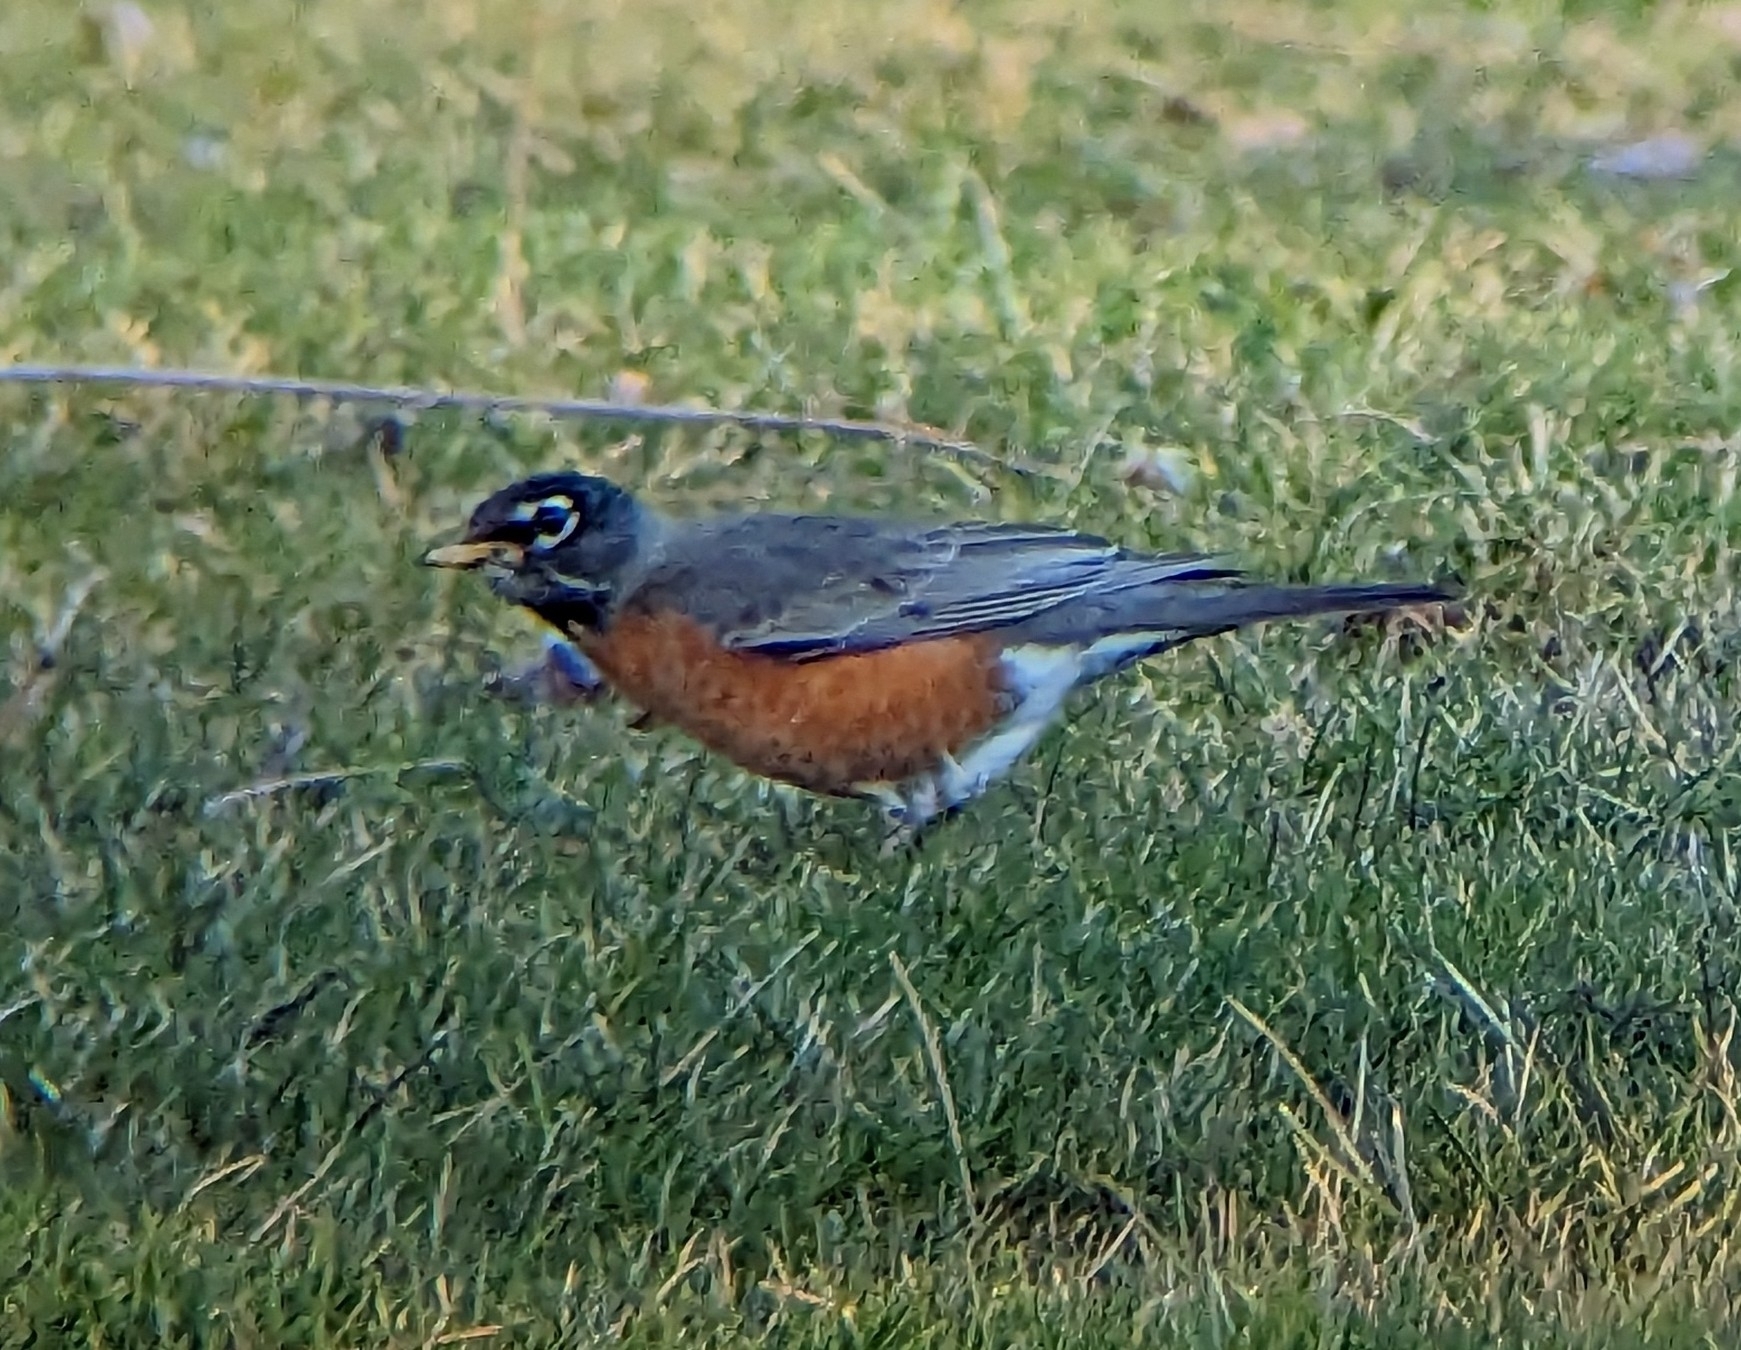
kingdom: Animalia
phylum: Chordata
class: Aves
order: Passeriformes
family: Turdidae
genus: Turdus
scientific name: Turdus migratorius
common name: American robin
